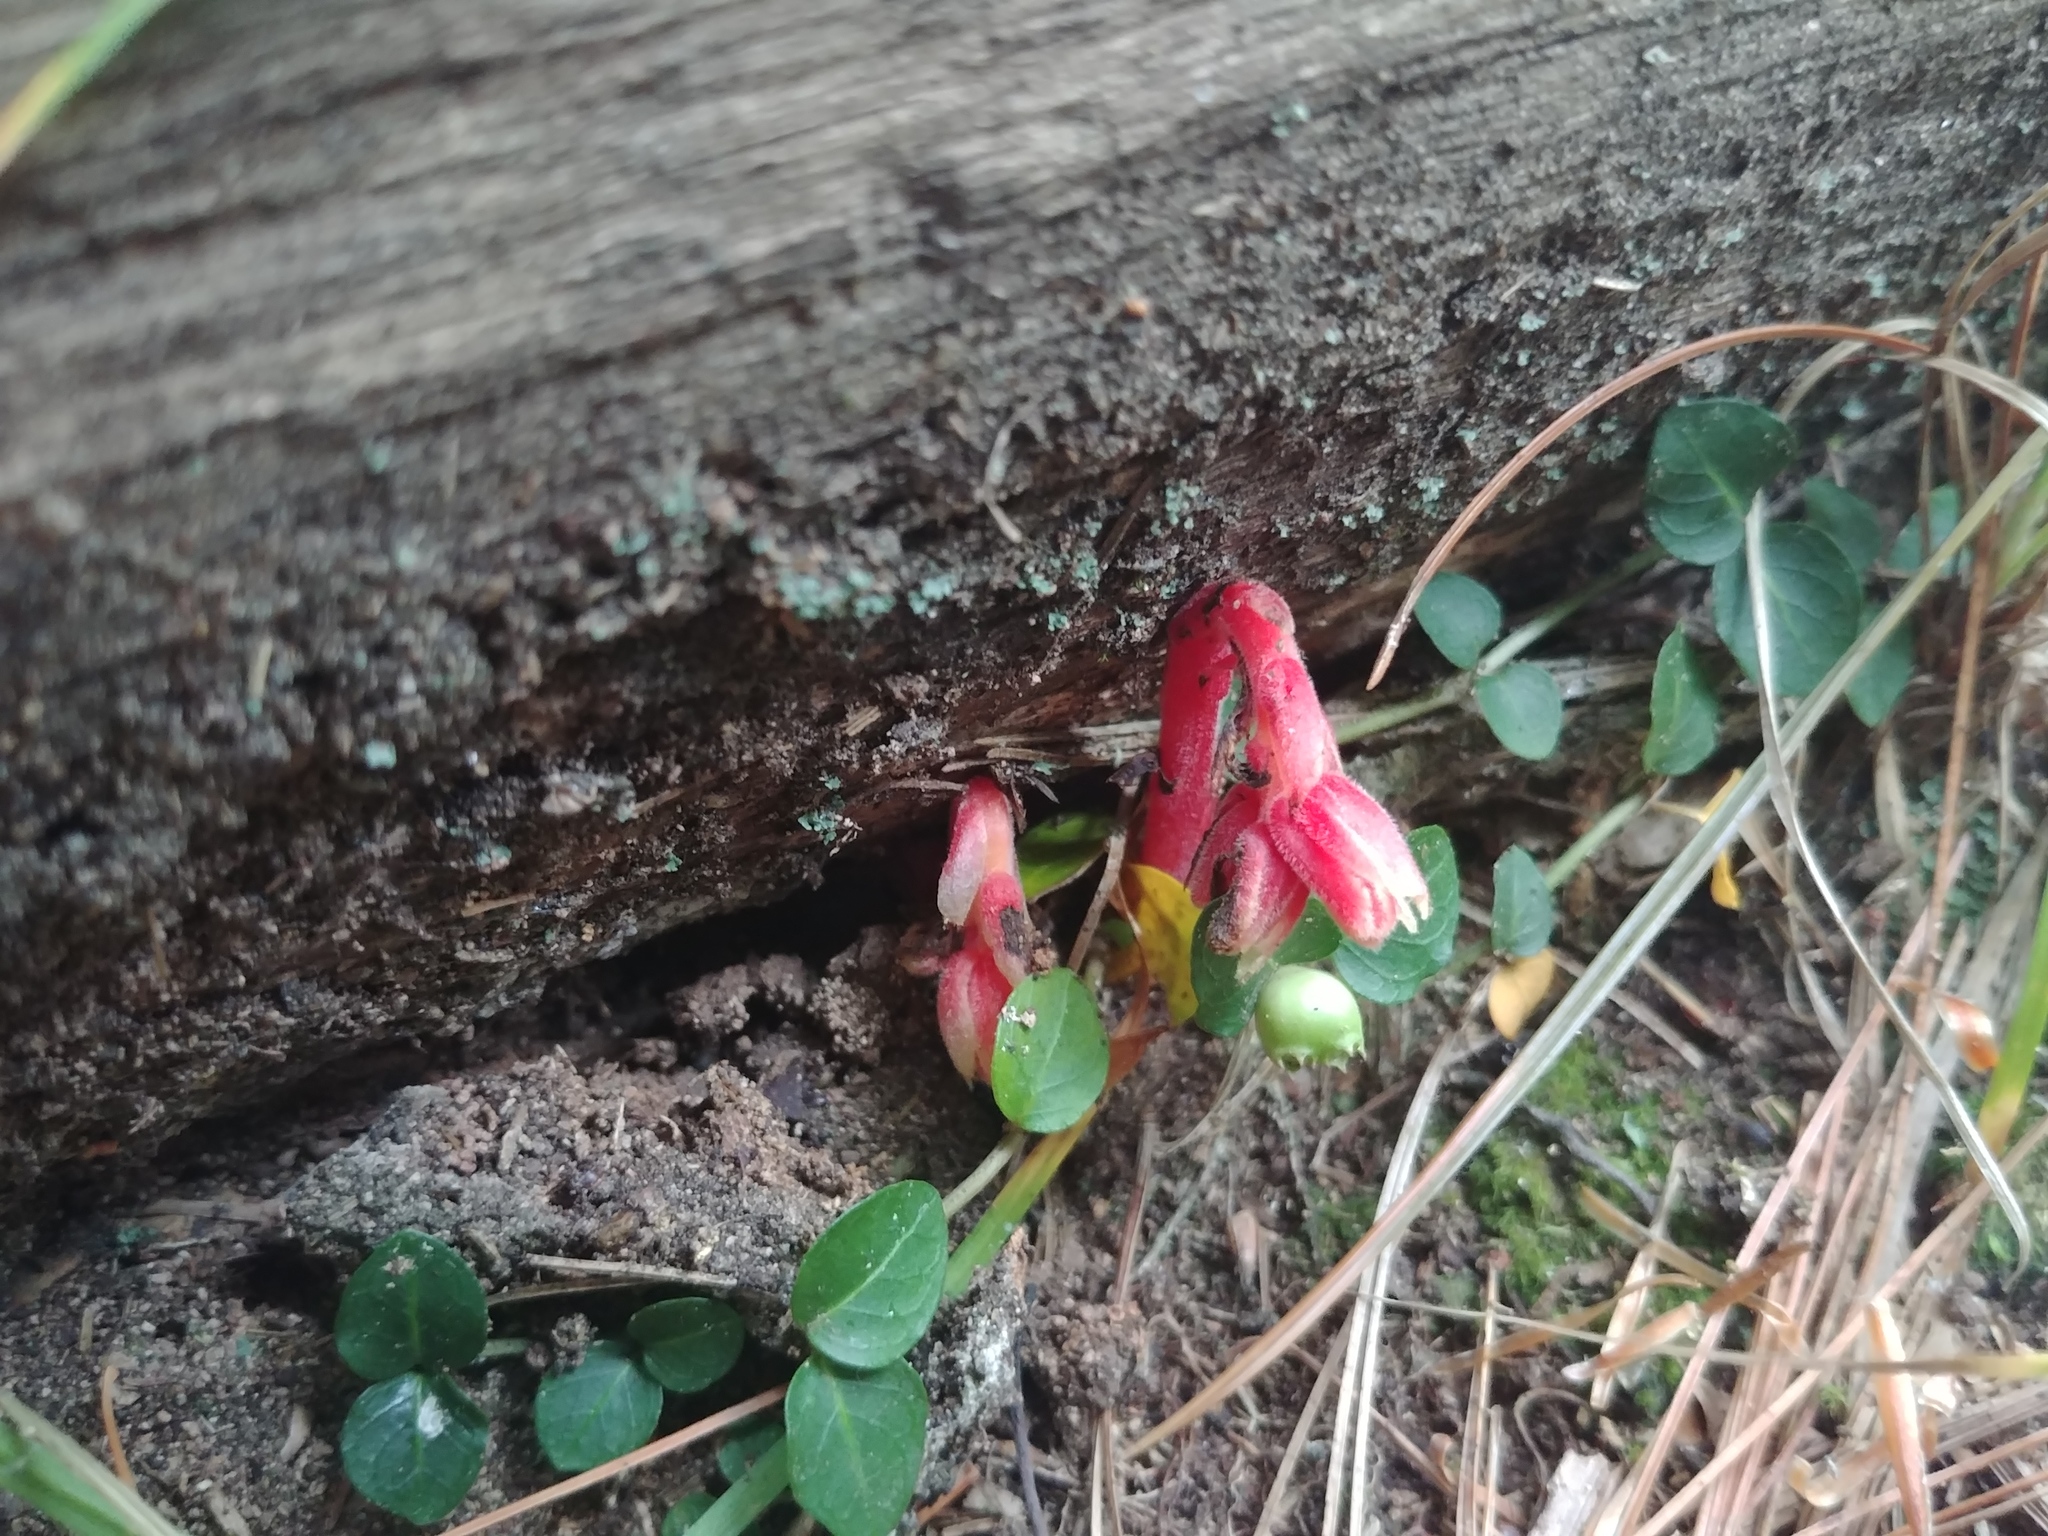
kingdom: Plantae
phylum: Tracheophyta
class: Magnoliopsida
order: Ericales
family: Ericaceae
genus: Hypopitys
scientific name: Hypopitys monotropa
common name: Yellow bird's-nest
